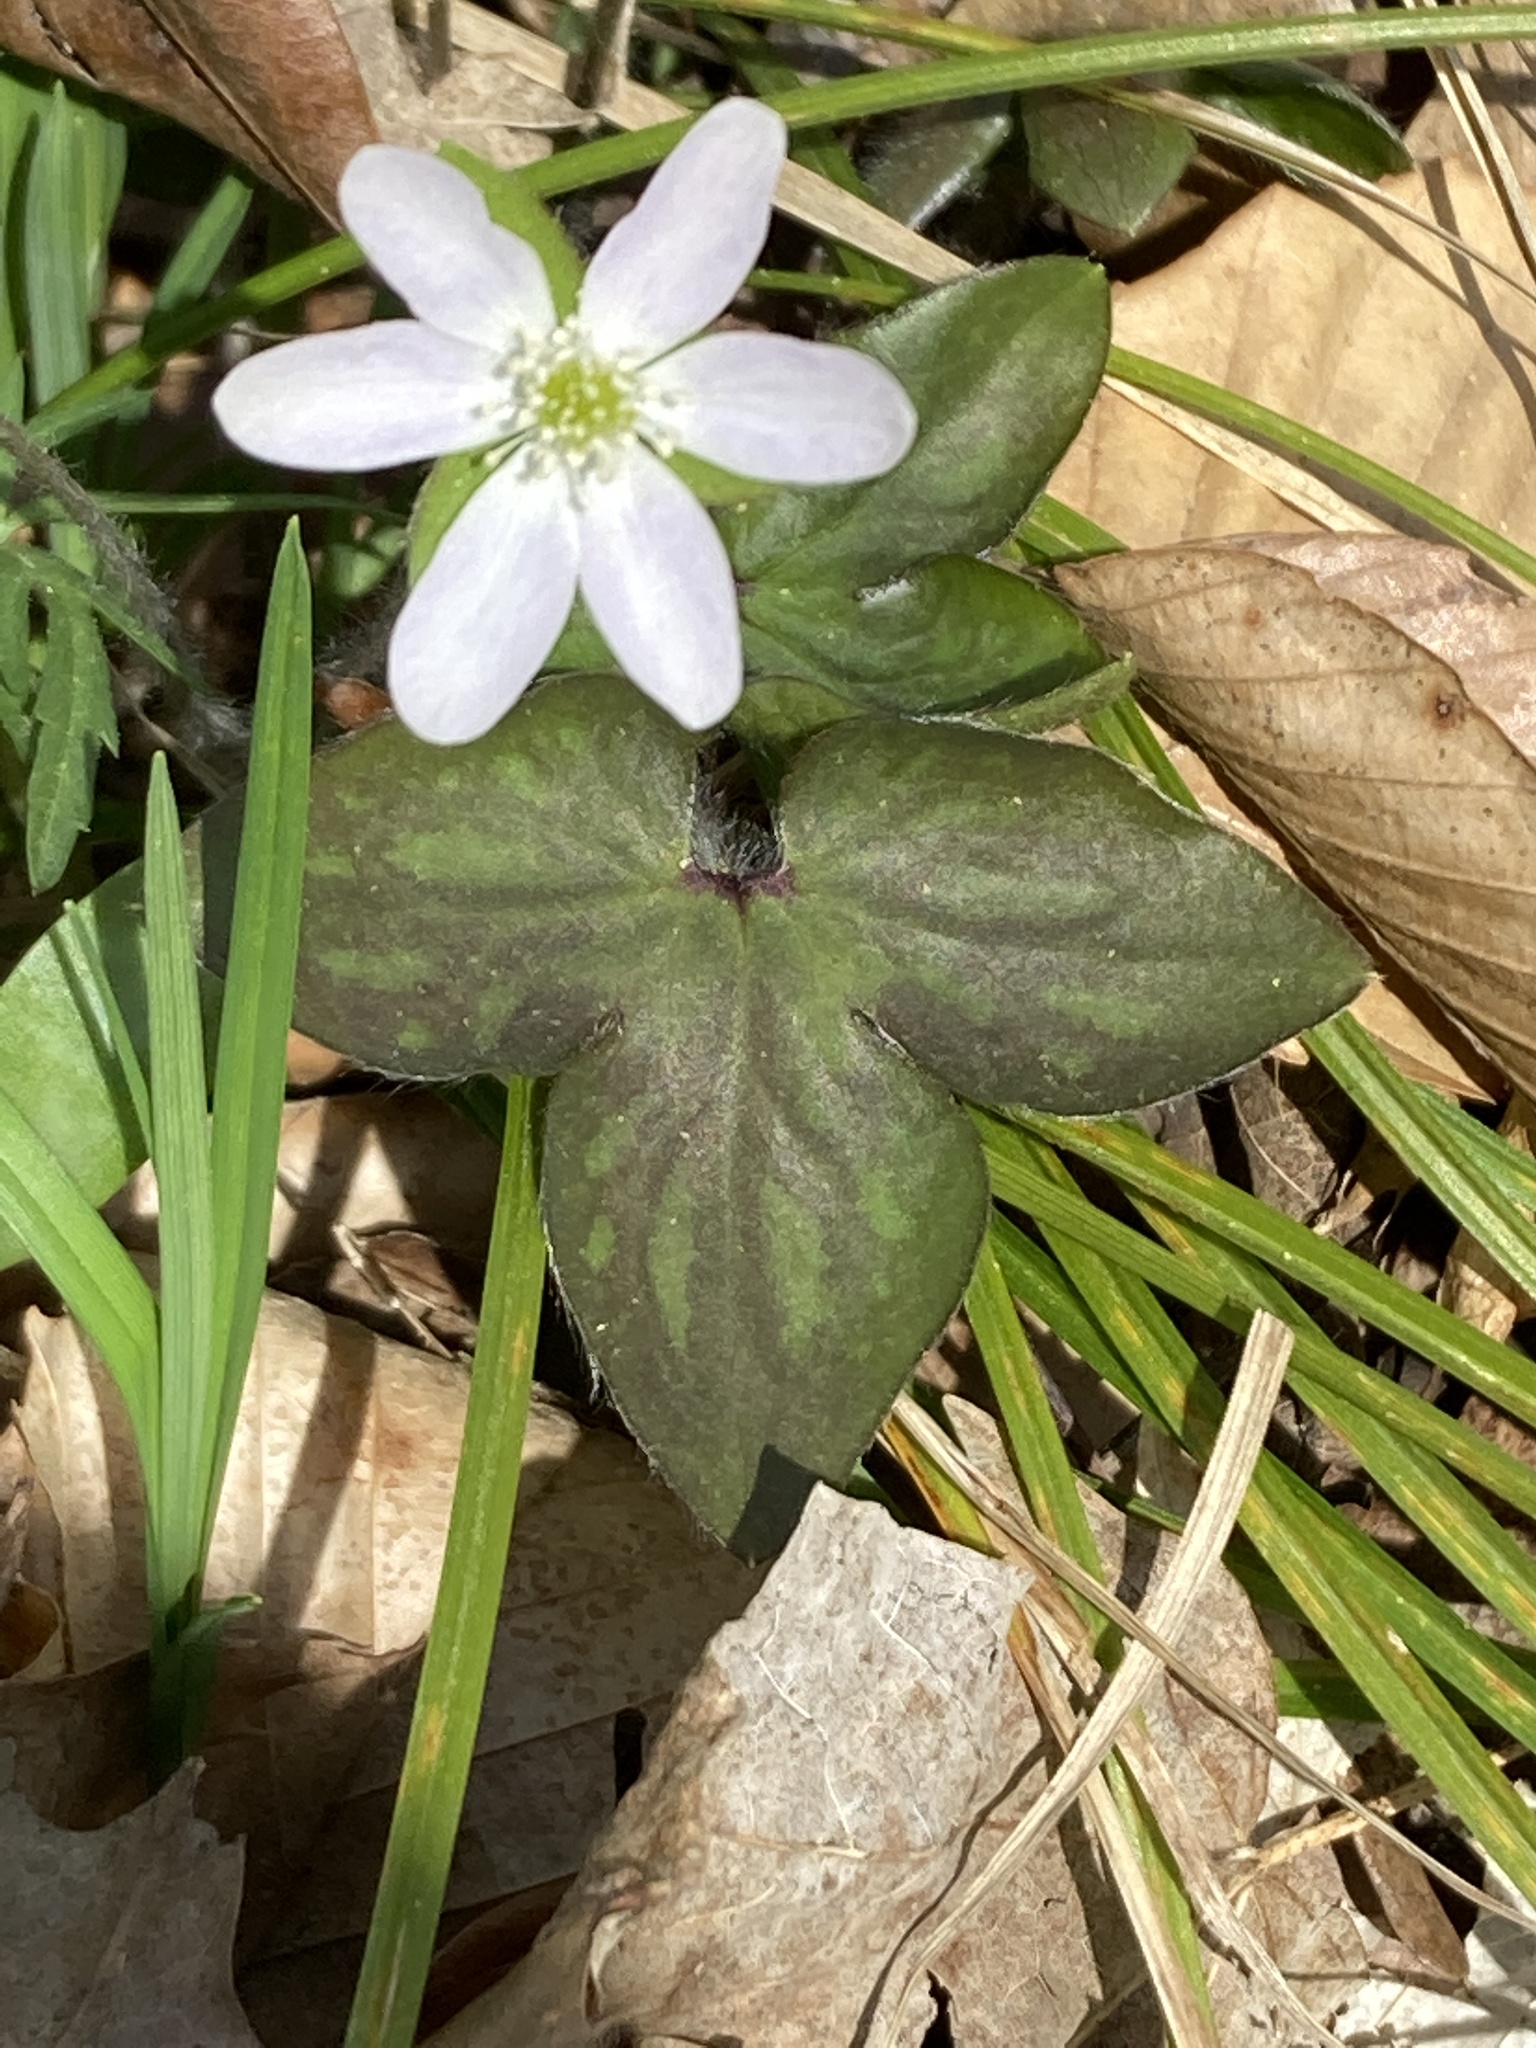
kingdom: Plantae
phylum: Tracheophyta
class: Magnoliopsida
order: Ranunculales
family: Ranunculaceae
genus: Hepatica
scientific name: Hepatica acutiloba
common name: Sharp-lobed hepatica
